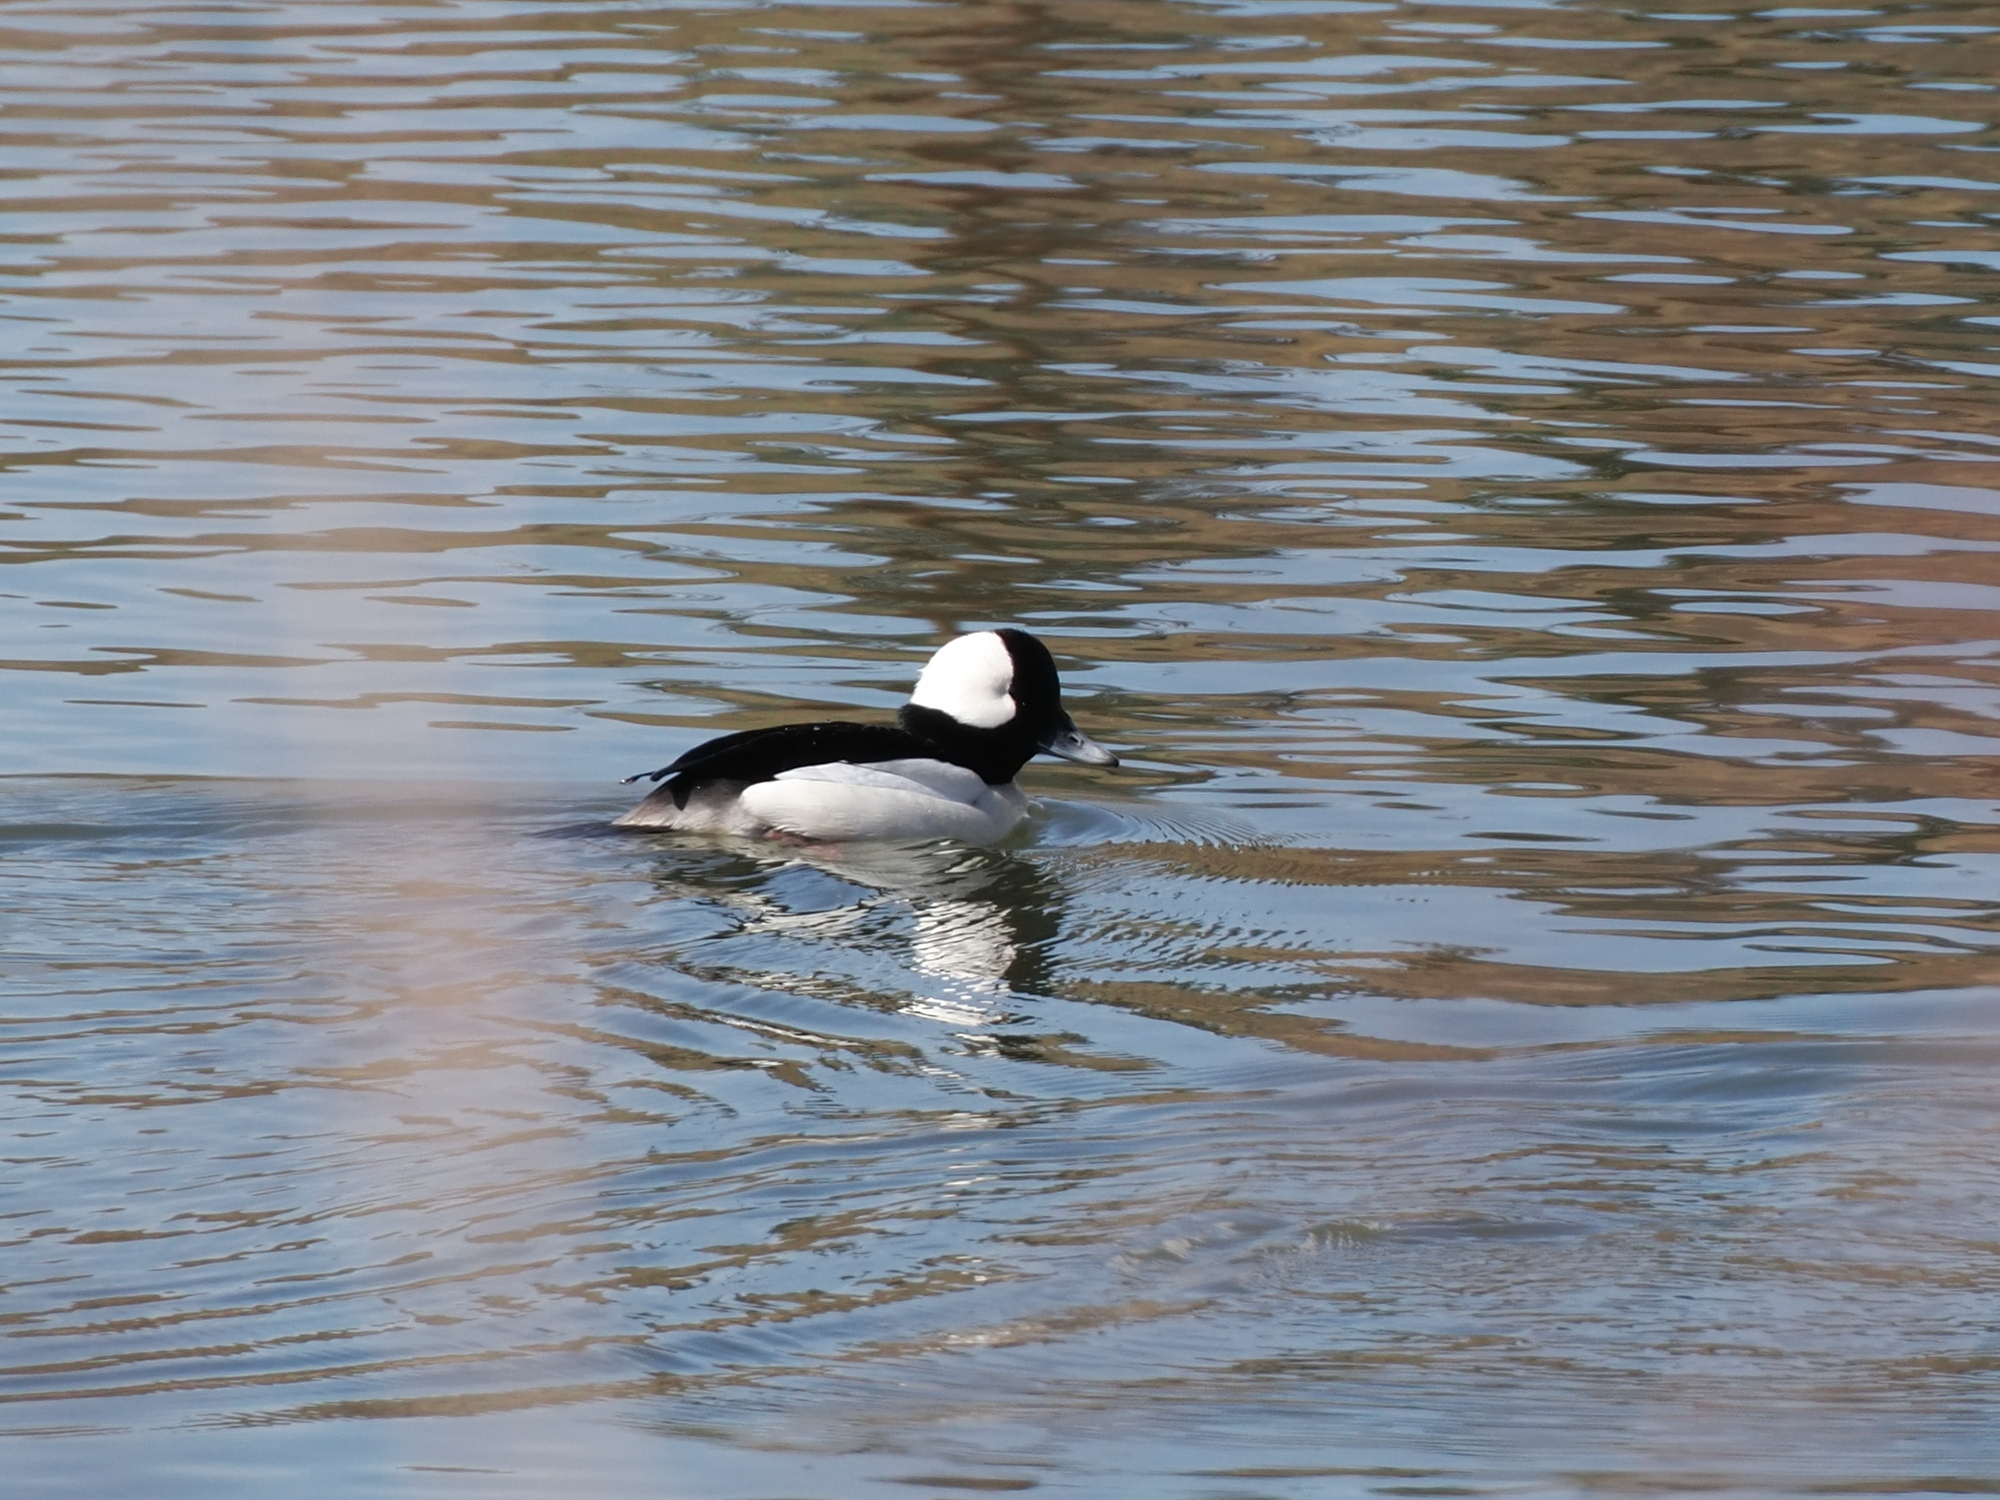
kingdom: Animalia
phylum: Chordata
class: Aves
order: Anseriformes
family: Anatidae
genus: Bucephala
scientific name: Bucephala albeola
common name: Bufflehead
